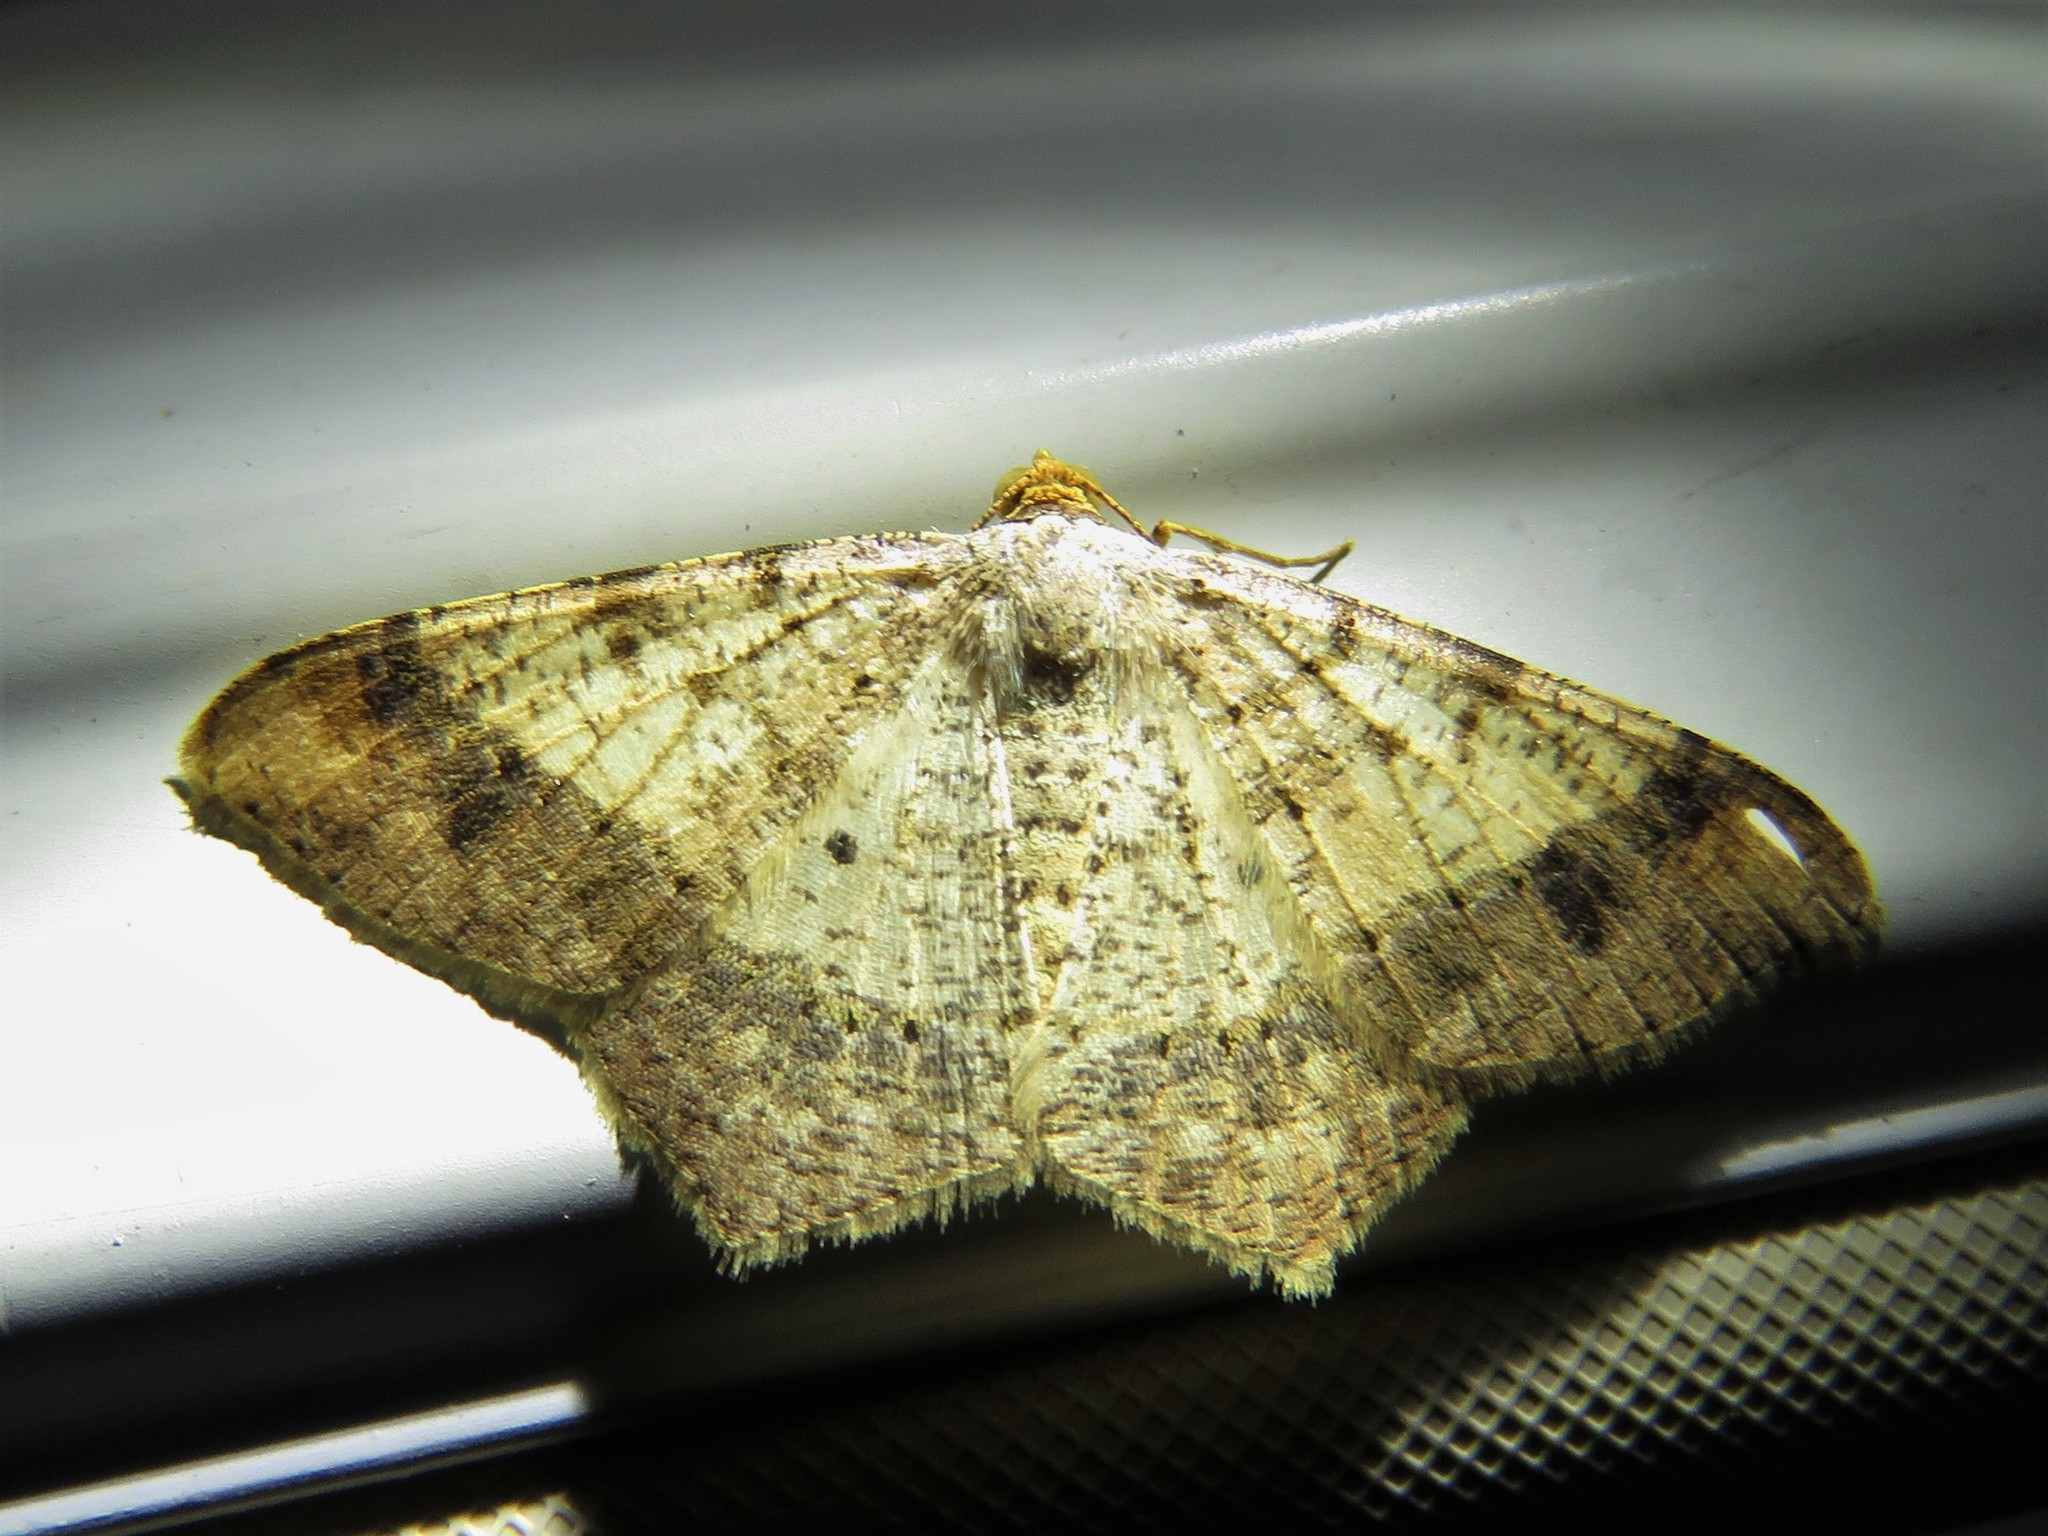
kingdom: Animalia
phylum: Arthropoda
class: Insecta
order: Lepidoptera
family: Geometridae
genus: Macaria
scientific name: Macaria abydata
